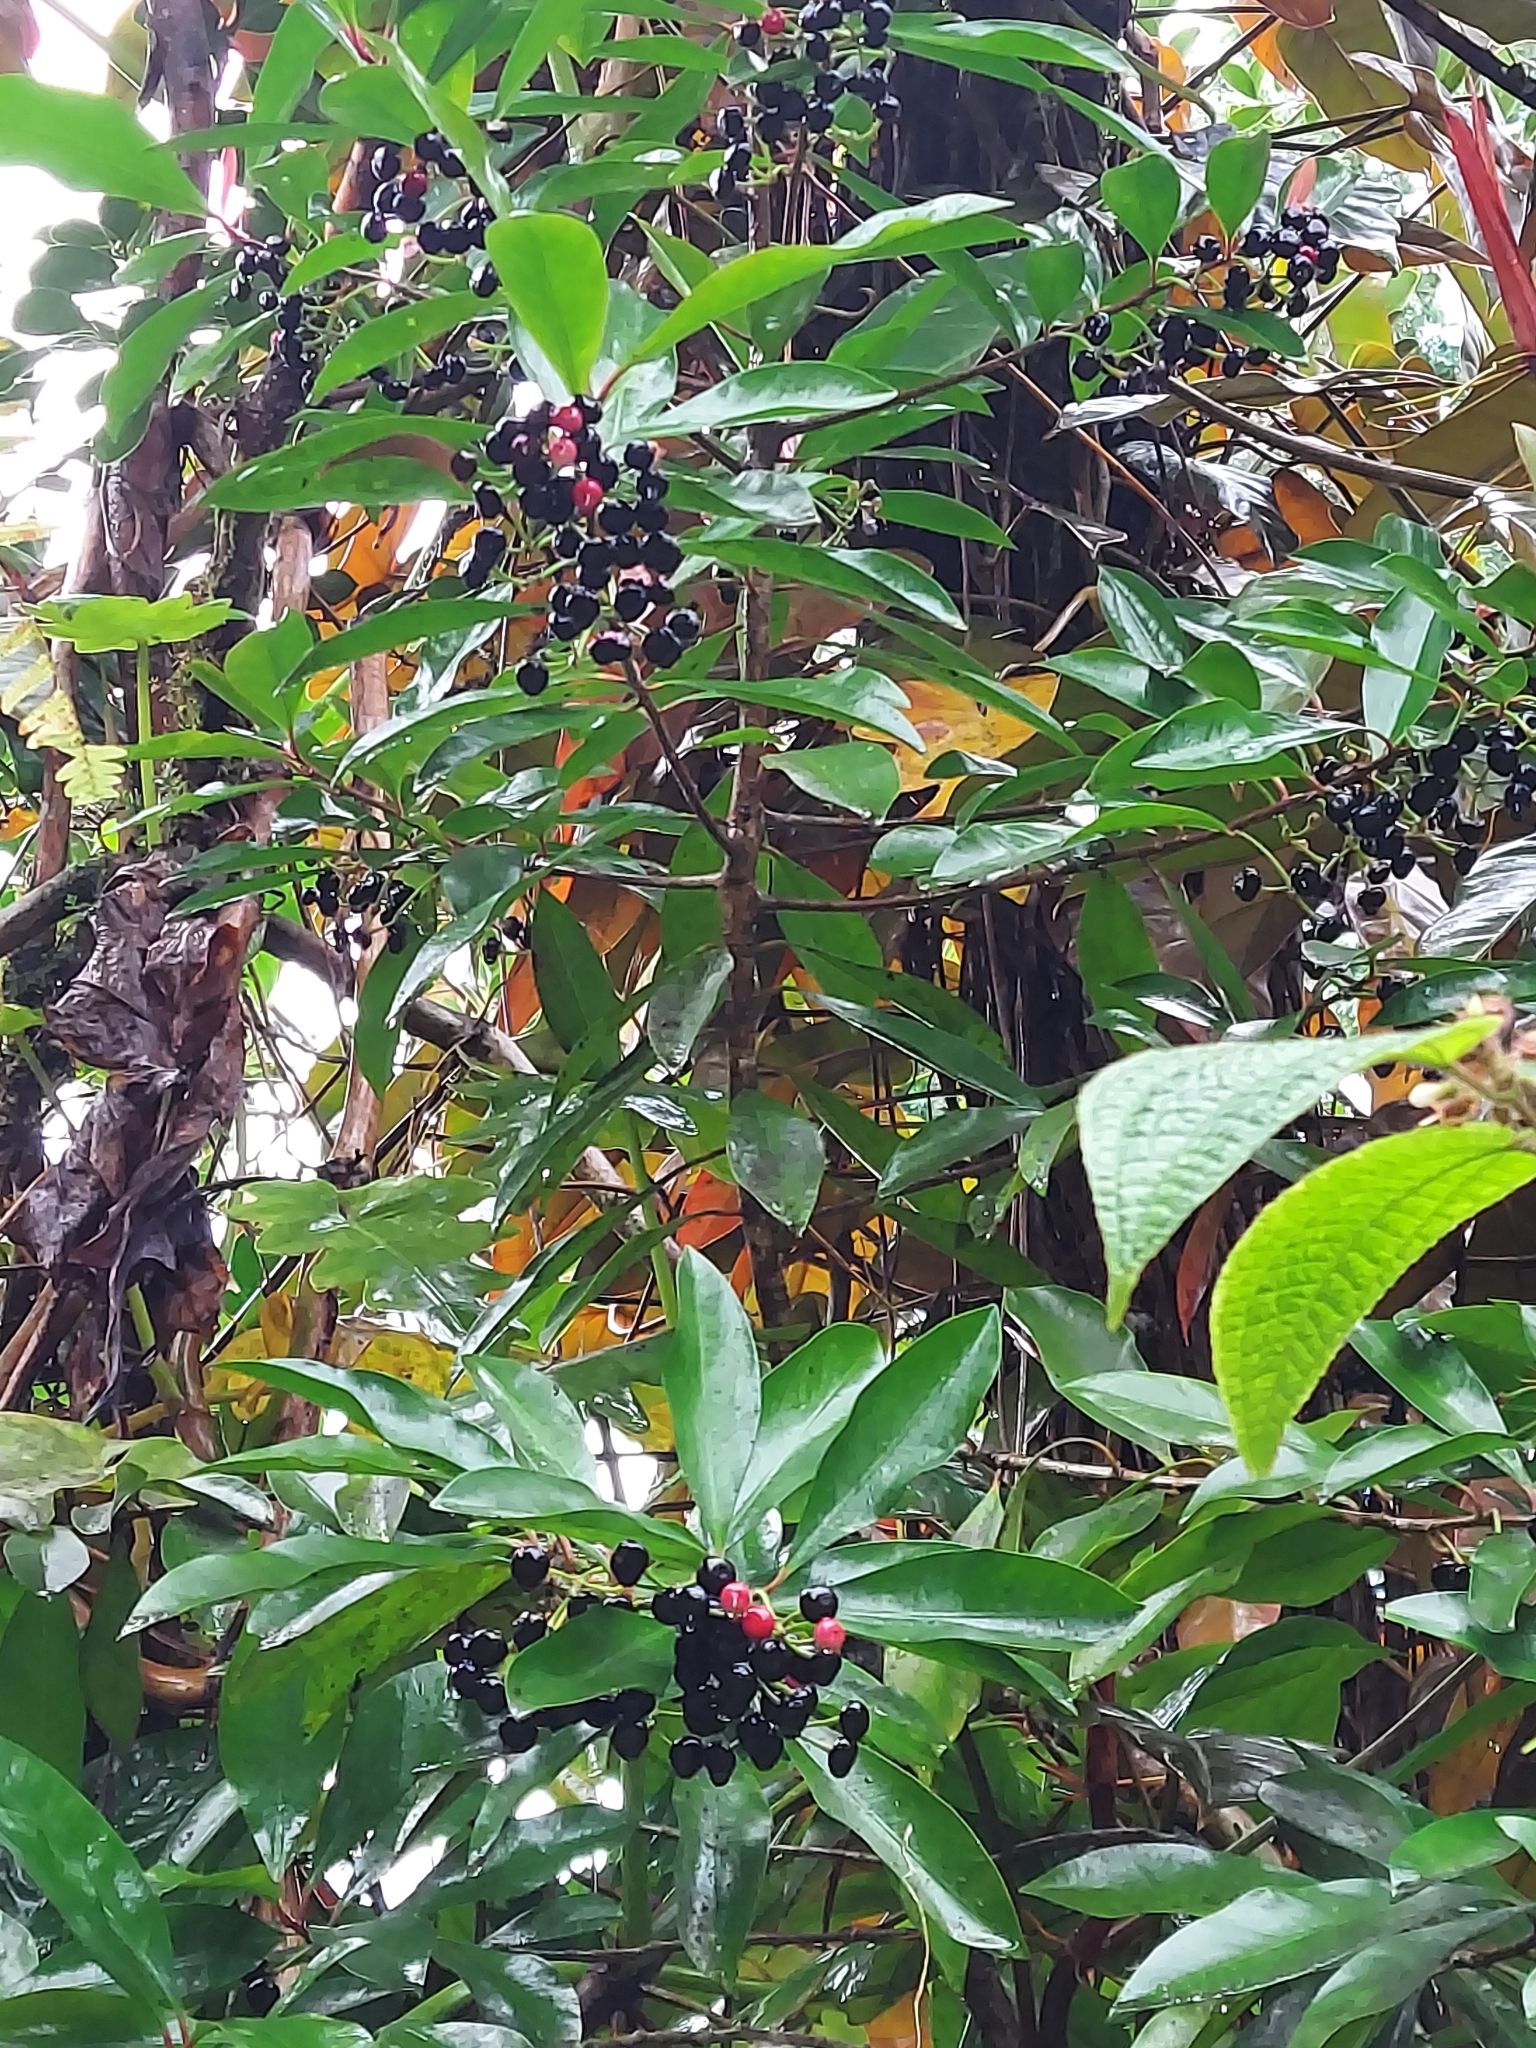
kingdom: Plantae
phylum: Tracheophyta
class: Magnoliopsida
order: Ericales
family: Primulaceae
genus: Ardisia
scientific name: Ardisia elliptica
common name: Shoebutton
